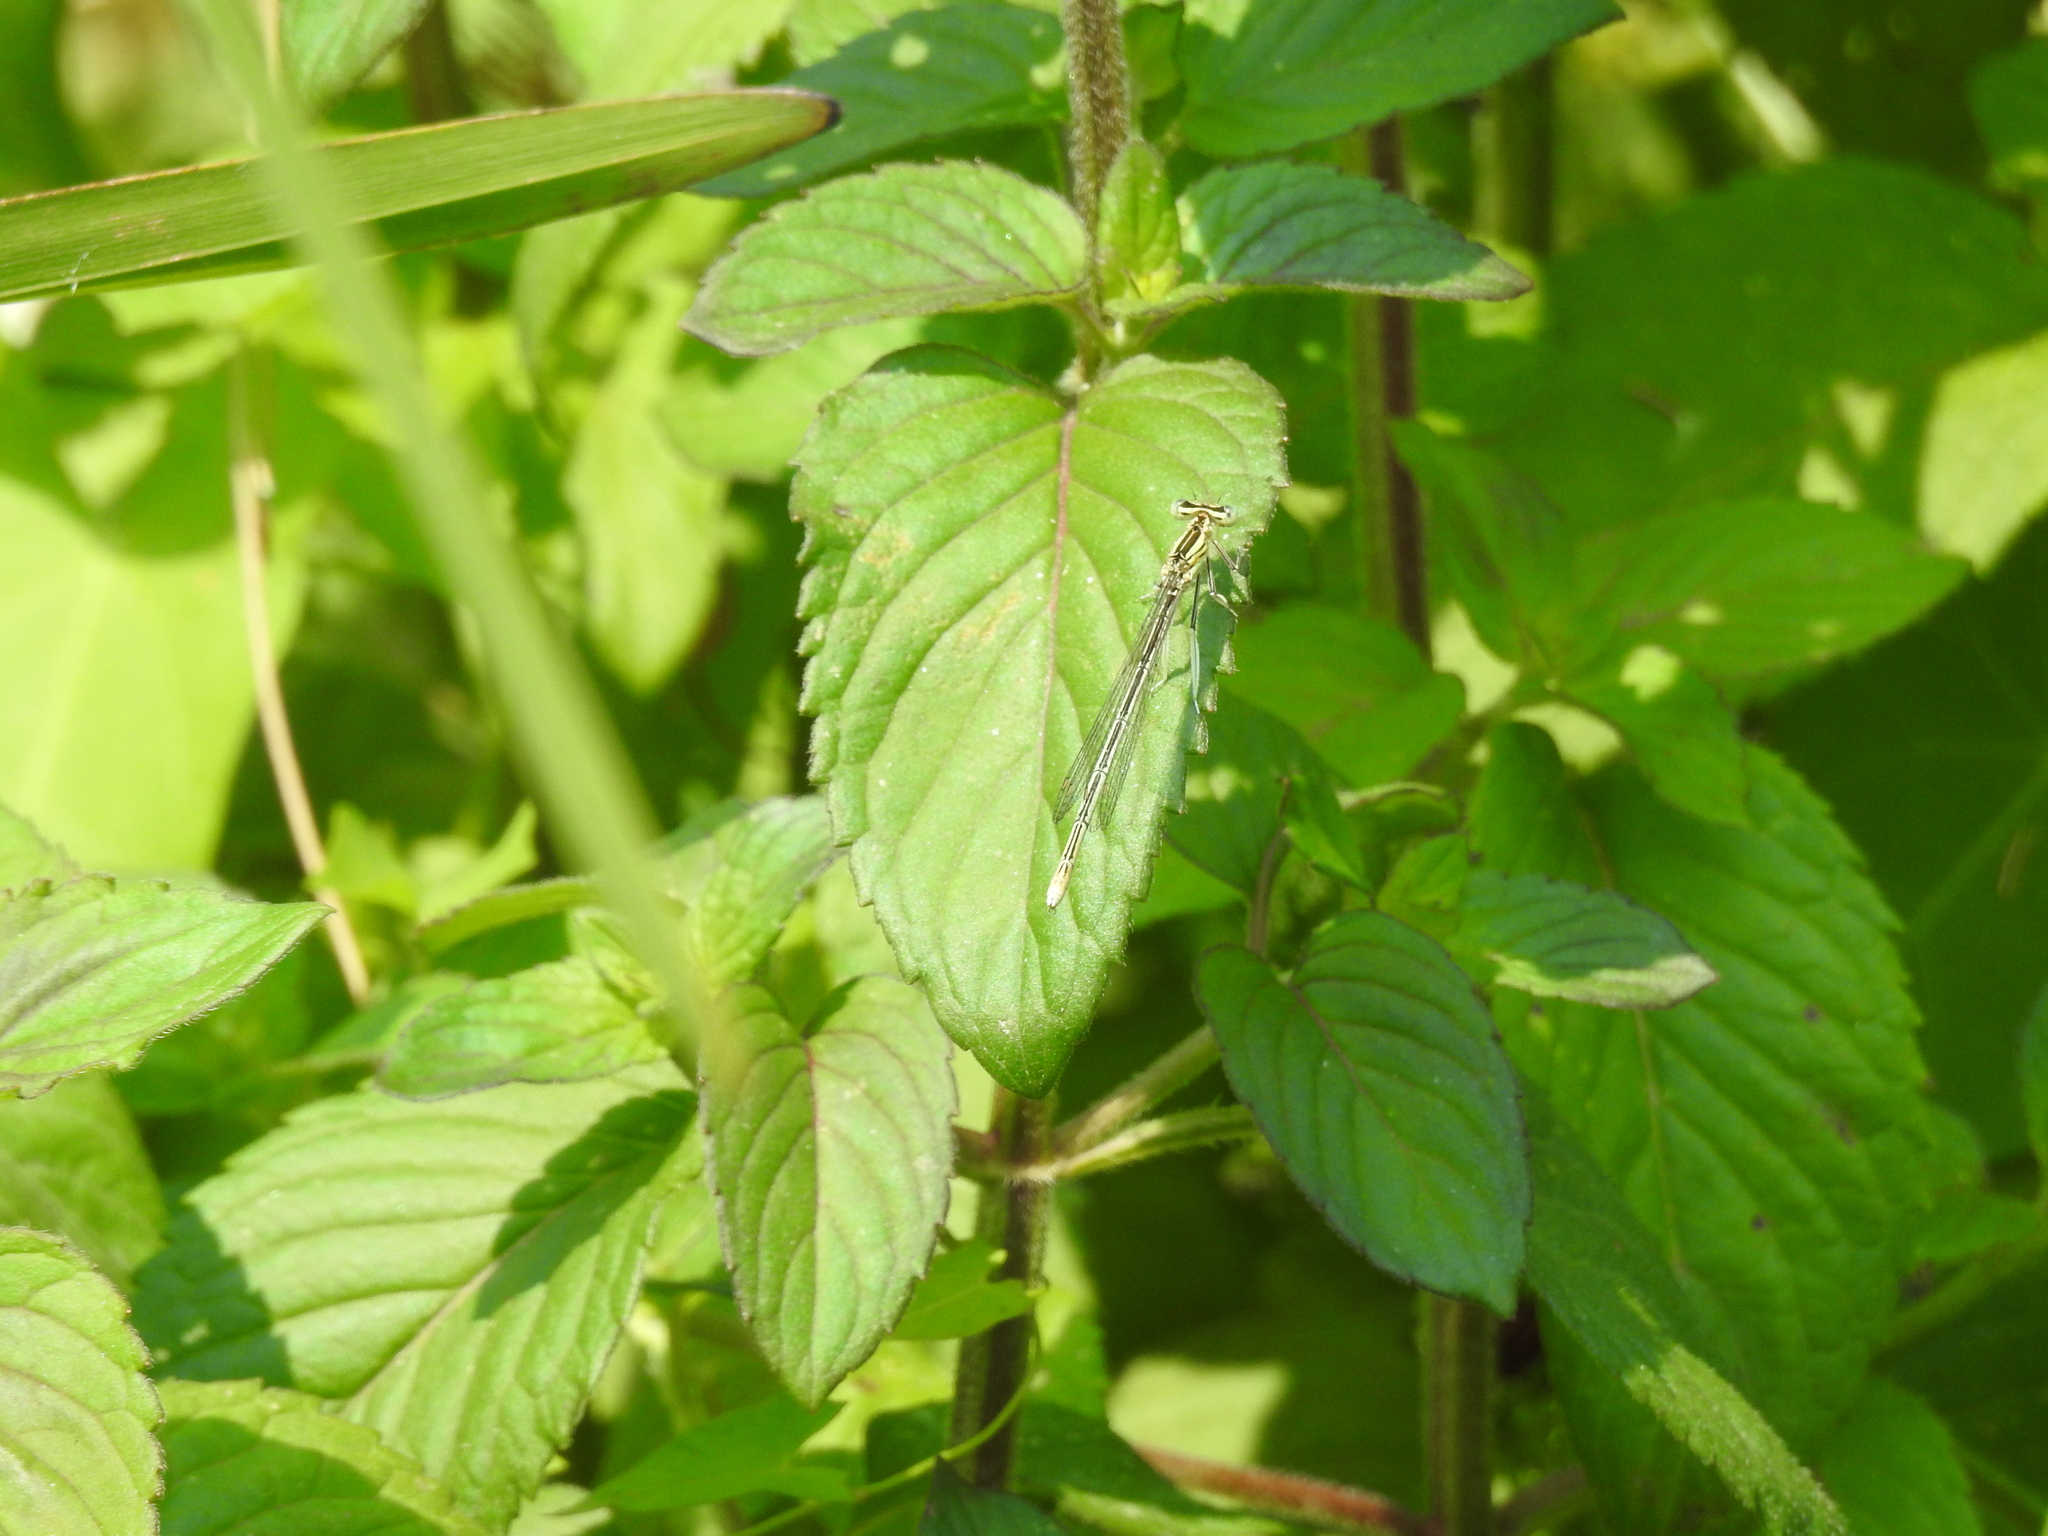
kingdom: Animalia
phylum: Arthropoda
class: Insecta
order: Odonata
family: Platycnemididae
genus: Platycnemis
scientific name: Platycnemis pennipes
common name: White-legged damselfly
